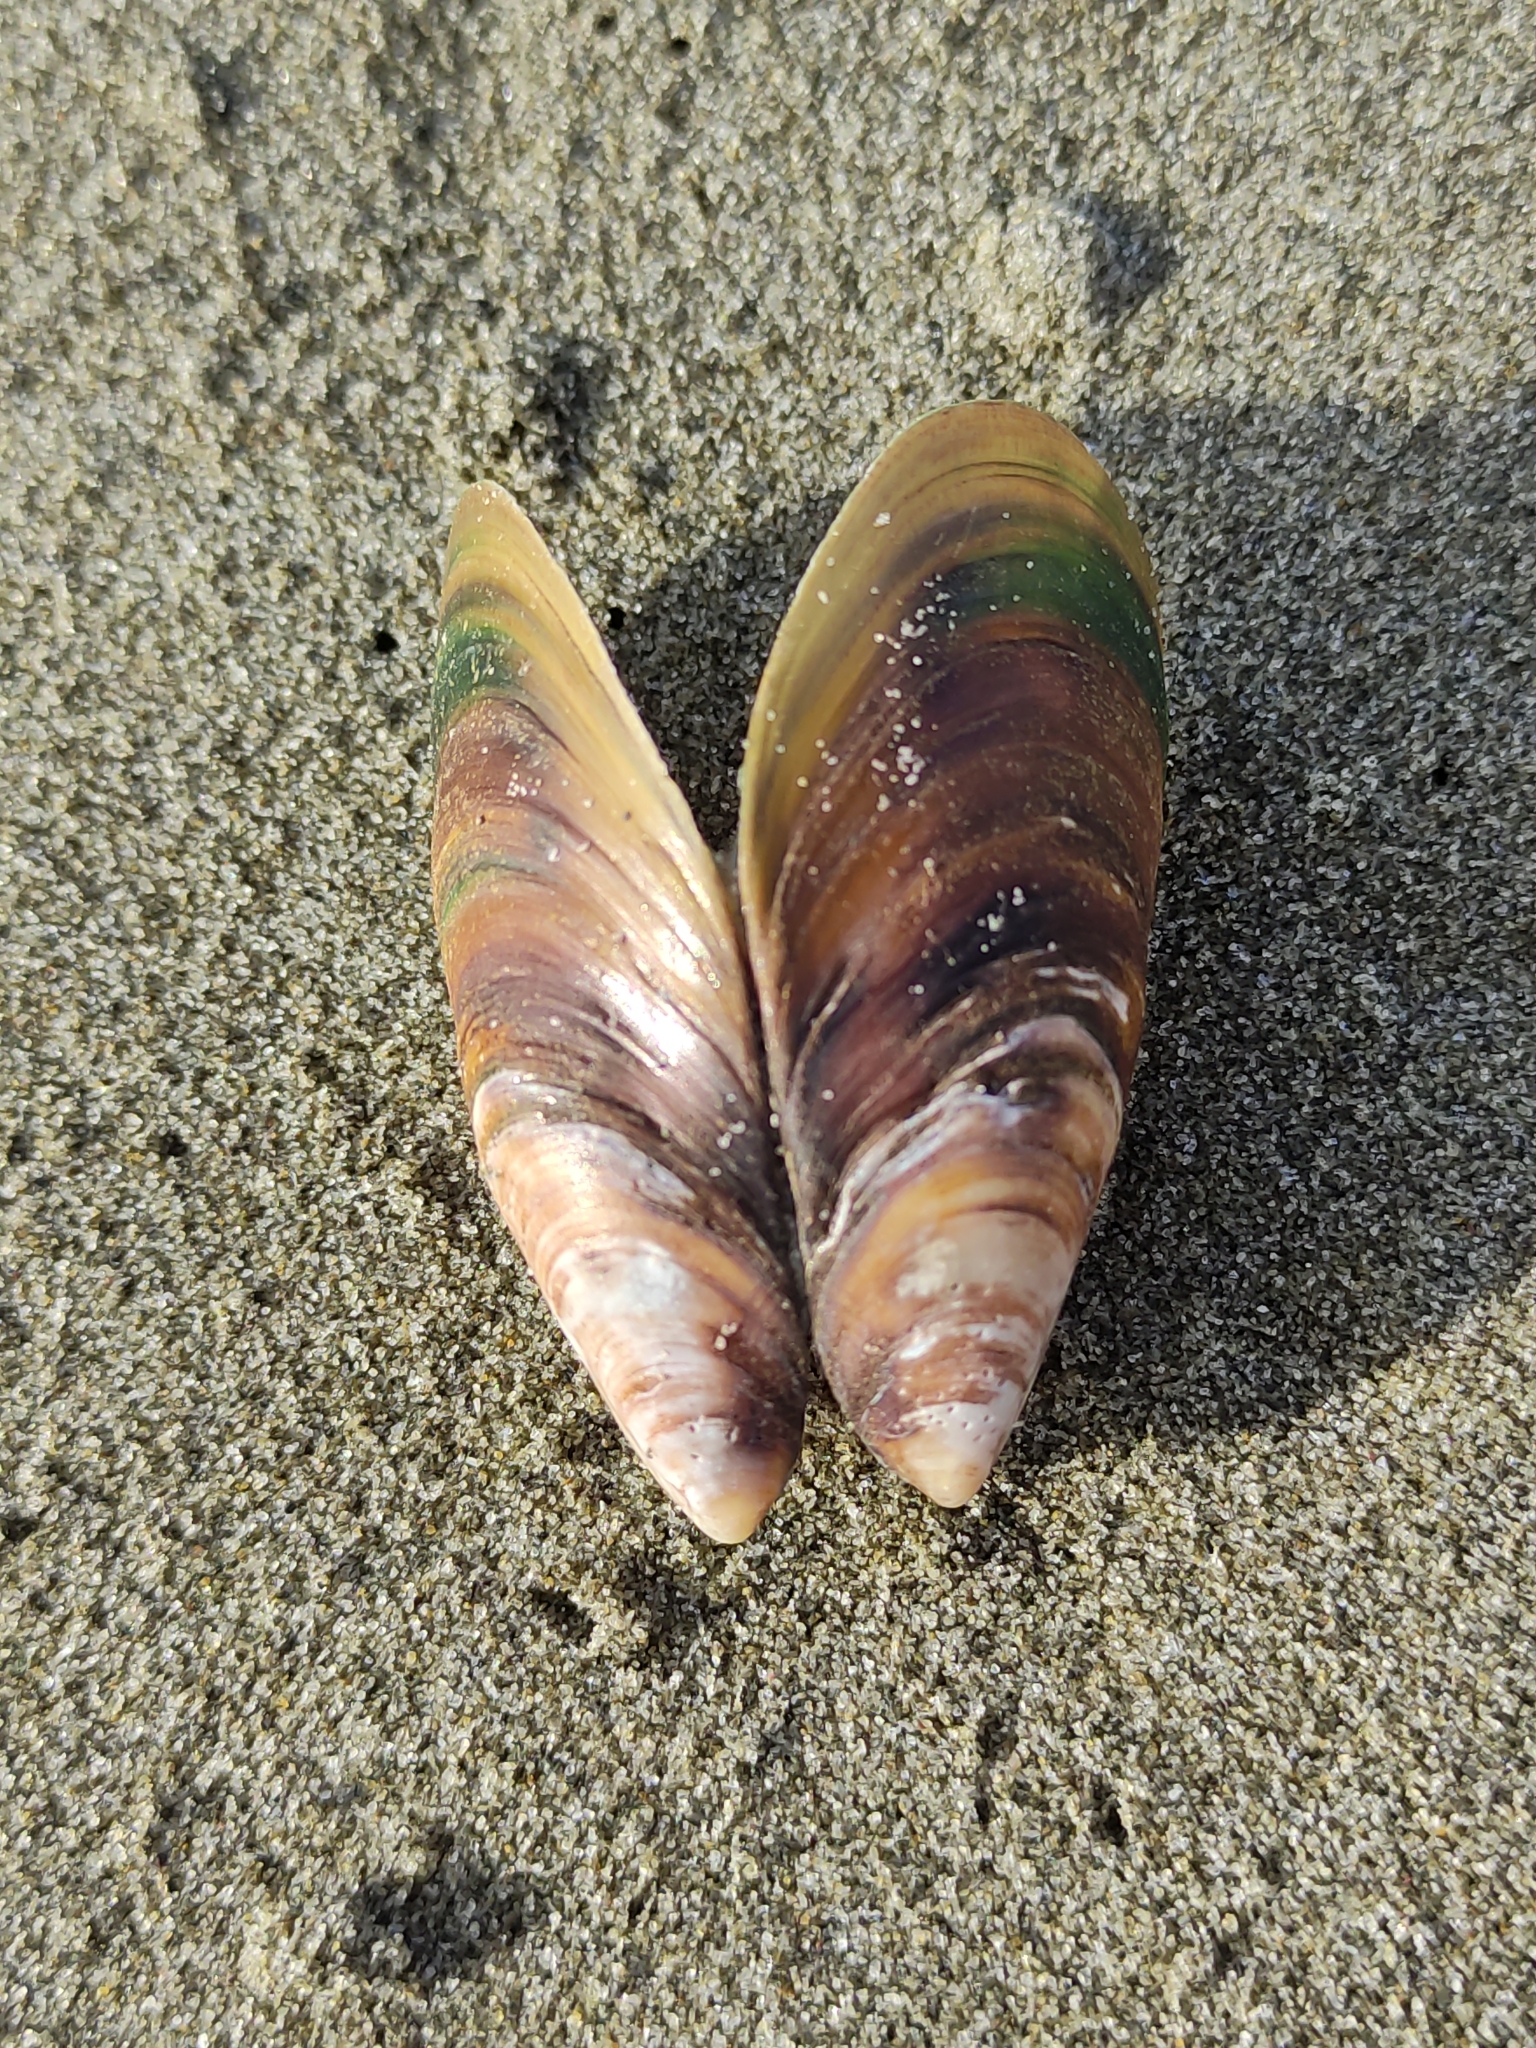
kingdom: Animalia
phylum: Mollusca
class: Bivalvia
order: Mytilida
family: Mytilidae
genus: Perna
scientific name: Perna canaliculus
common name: New zealand greenshelltm
